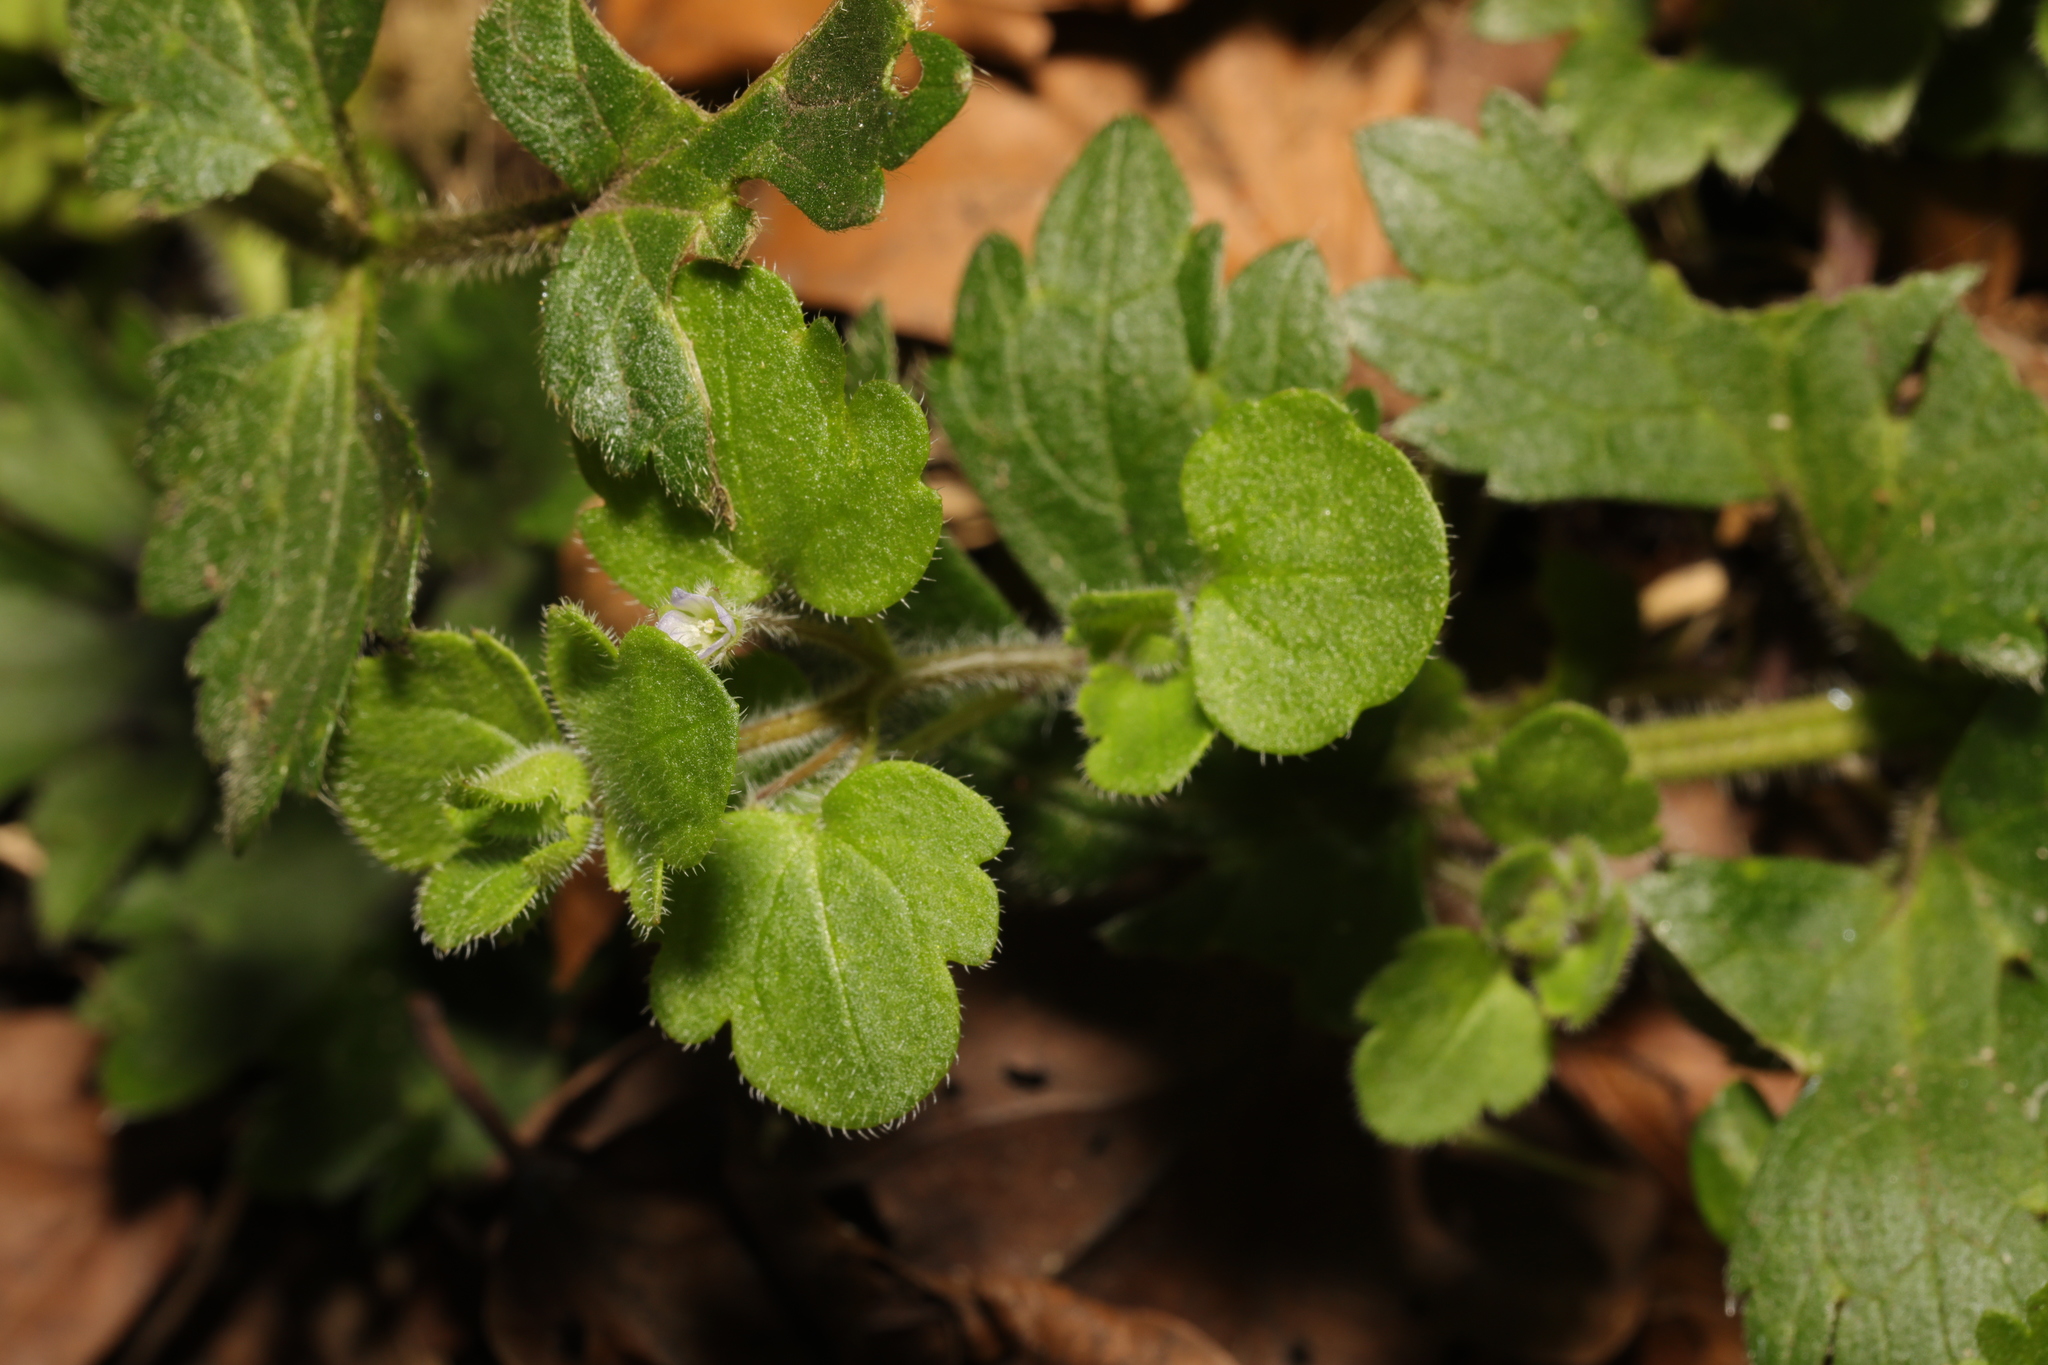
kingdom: Plantae
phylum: Tracheophyta
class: Magnoliopsida
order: Lamiales
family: Plantaginaceae
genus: Veronica
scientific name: Veronica hederifolia
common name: Ivy-leaved speedwell
